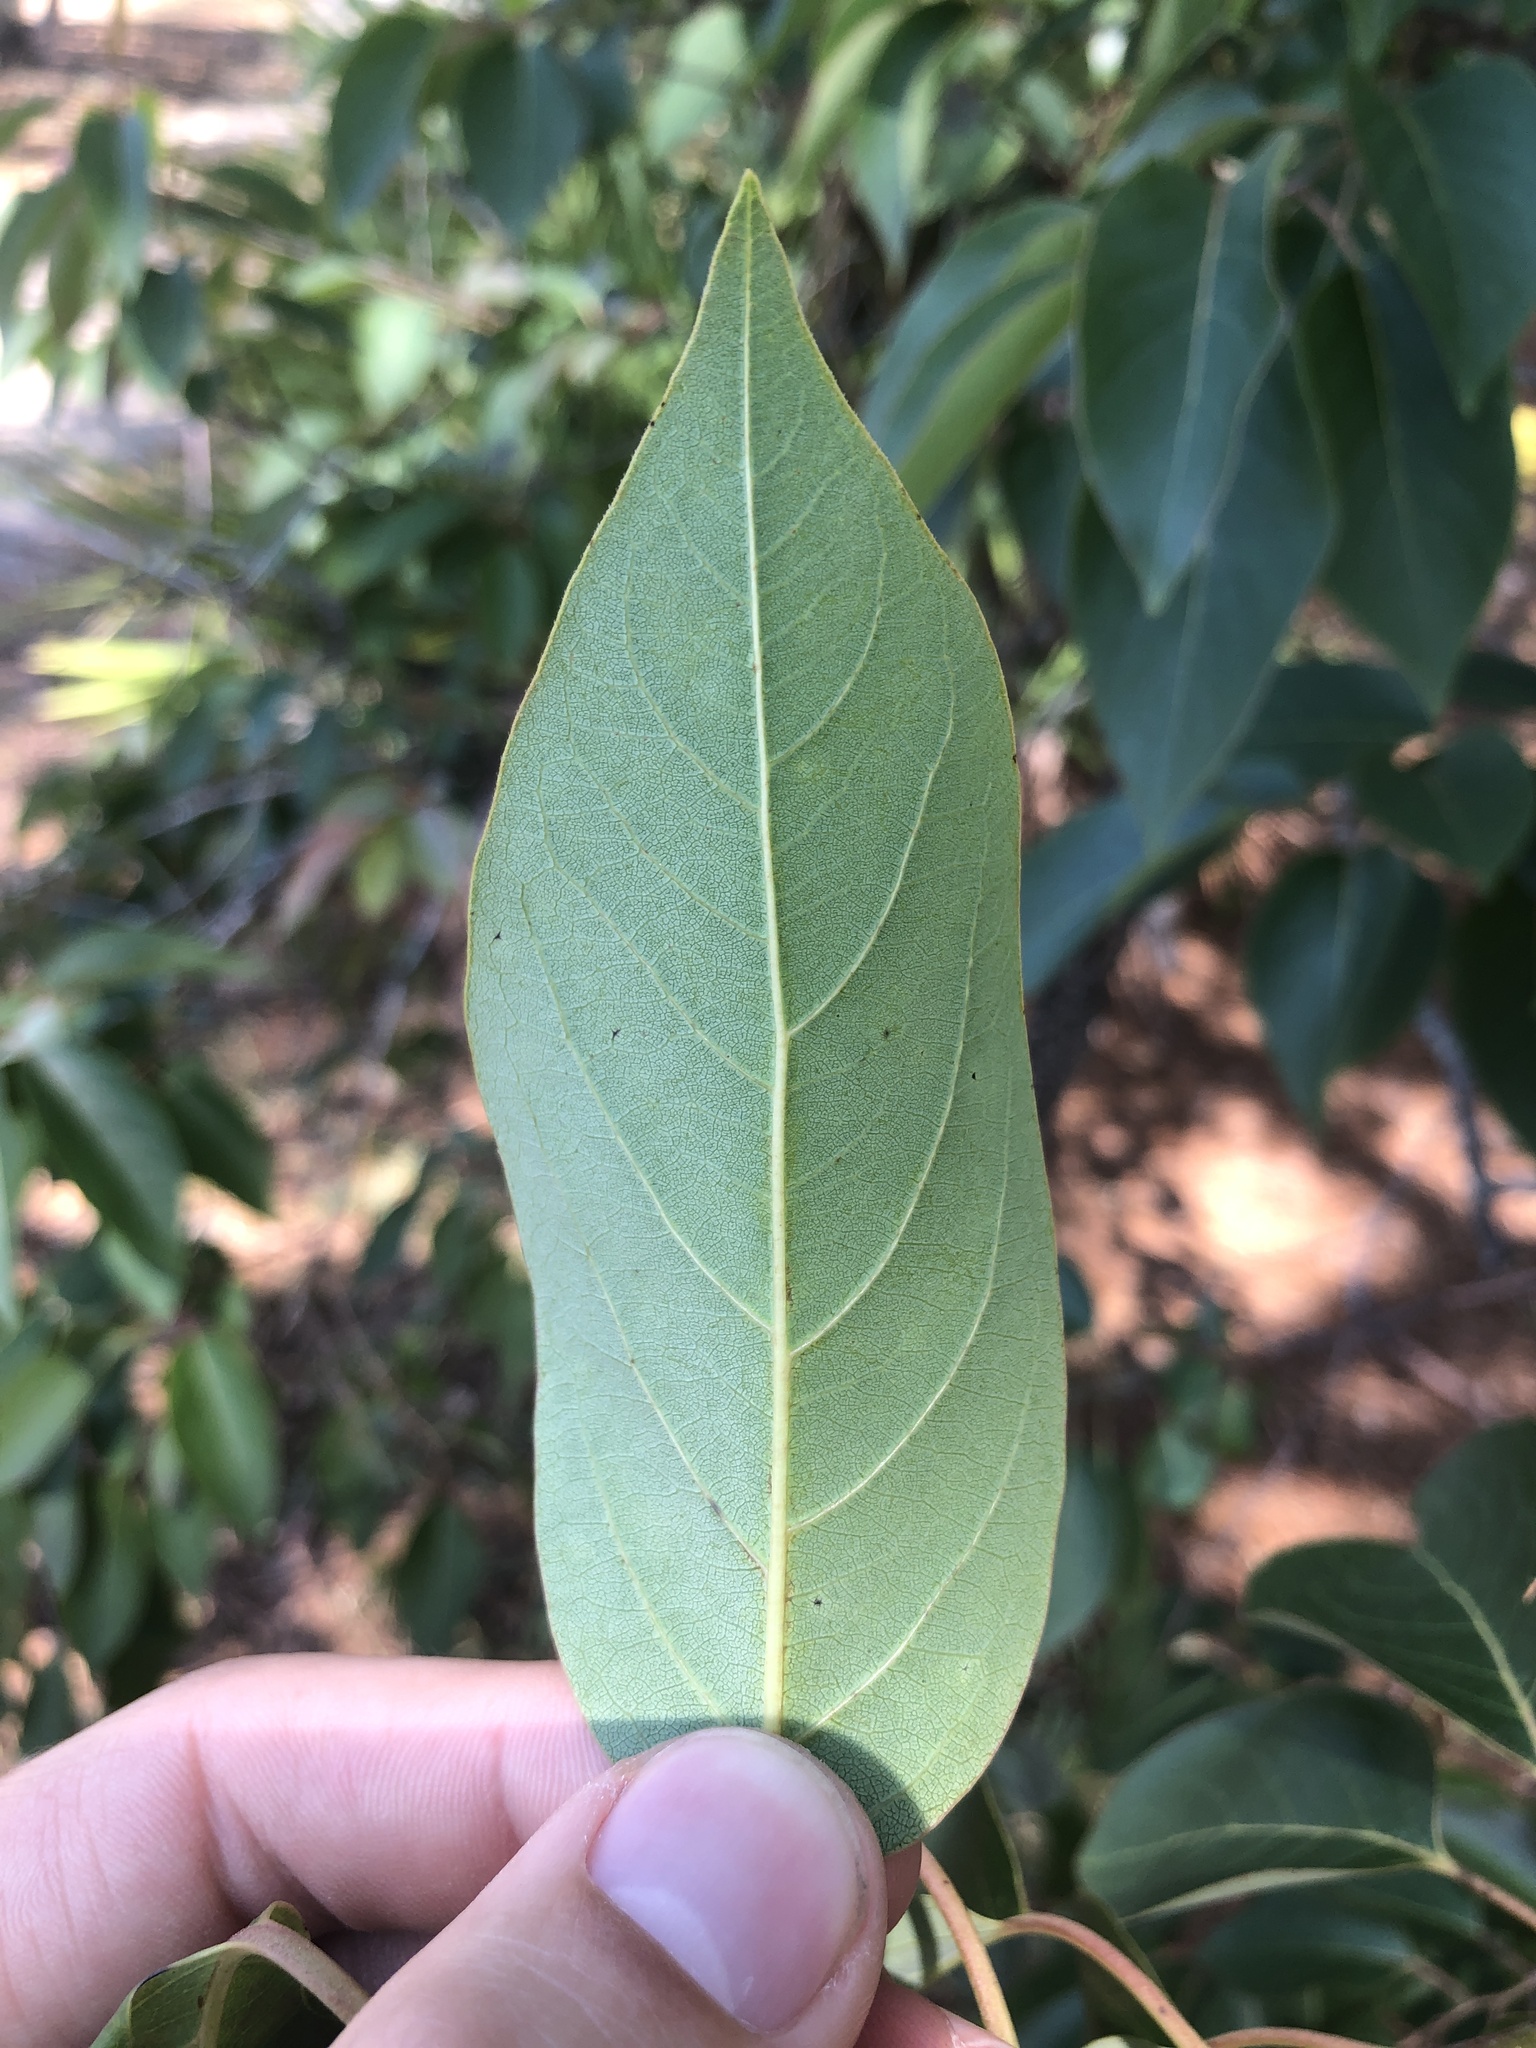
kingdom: Plantae
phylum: Tracheophyta
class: Magnoliopsida
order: Ericales
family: Ebenaceae
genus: Diospyros
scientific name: Diospyros virginiana
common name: Persimmon
